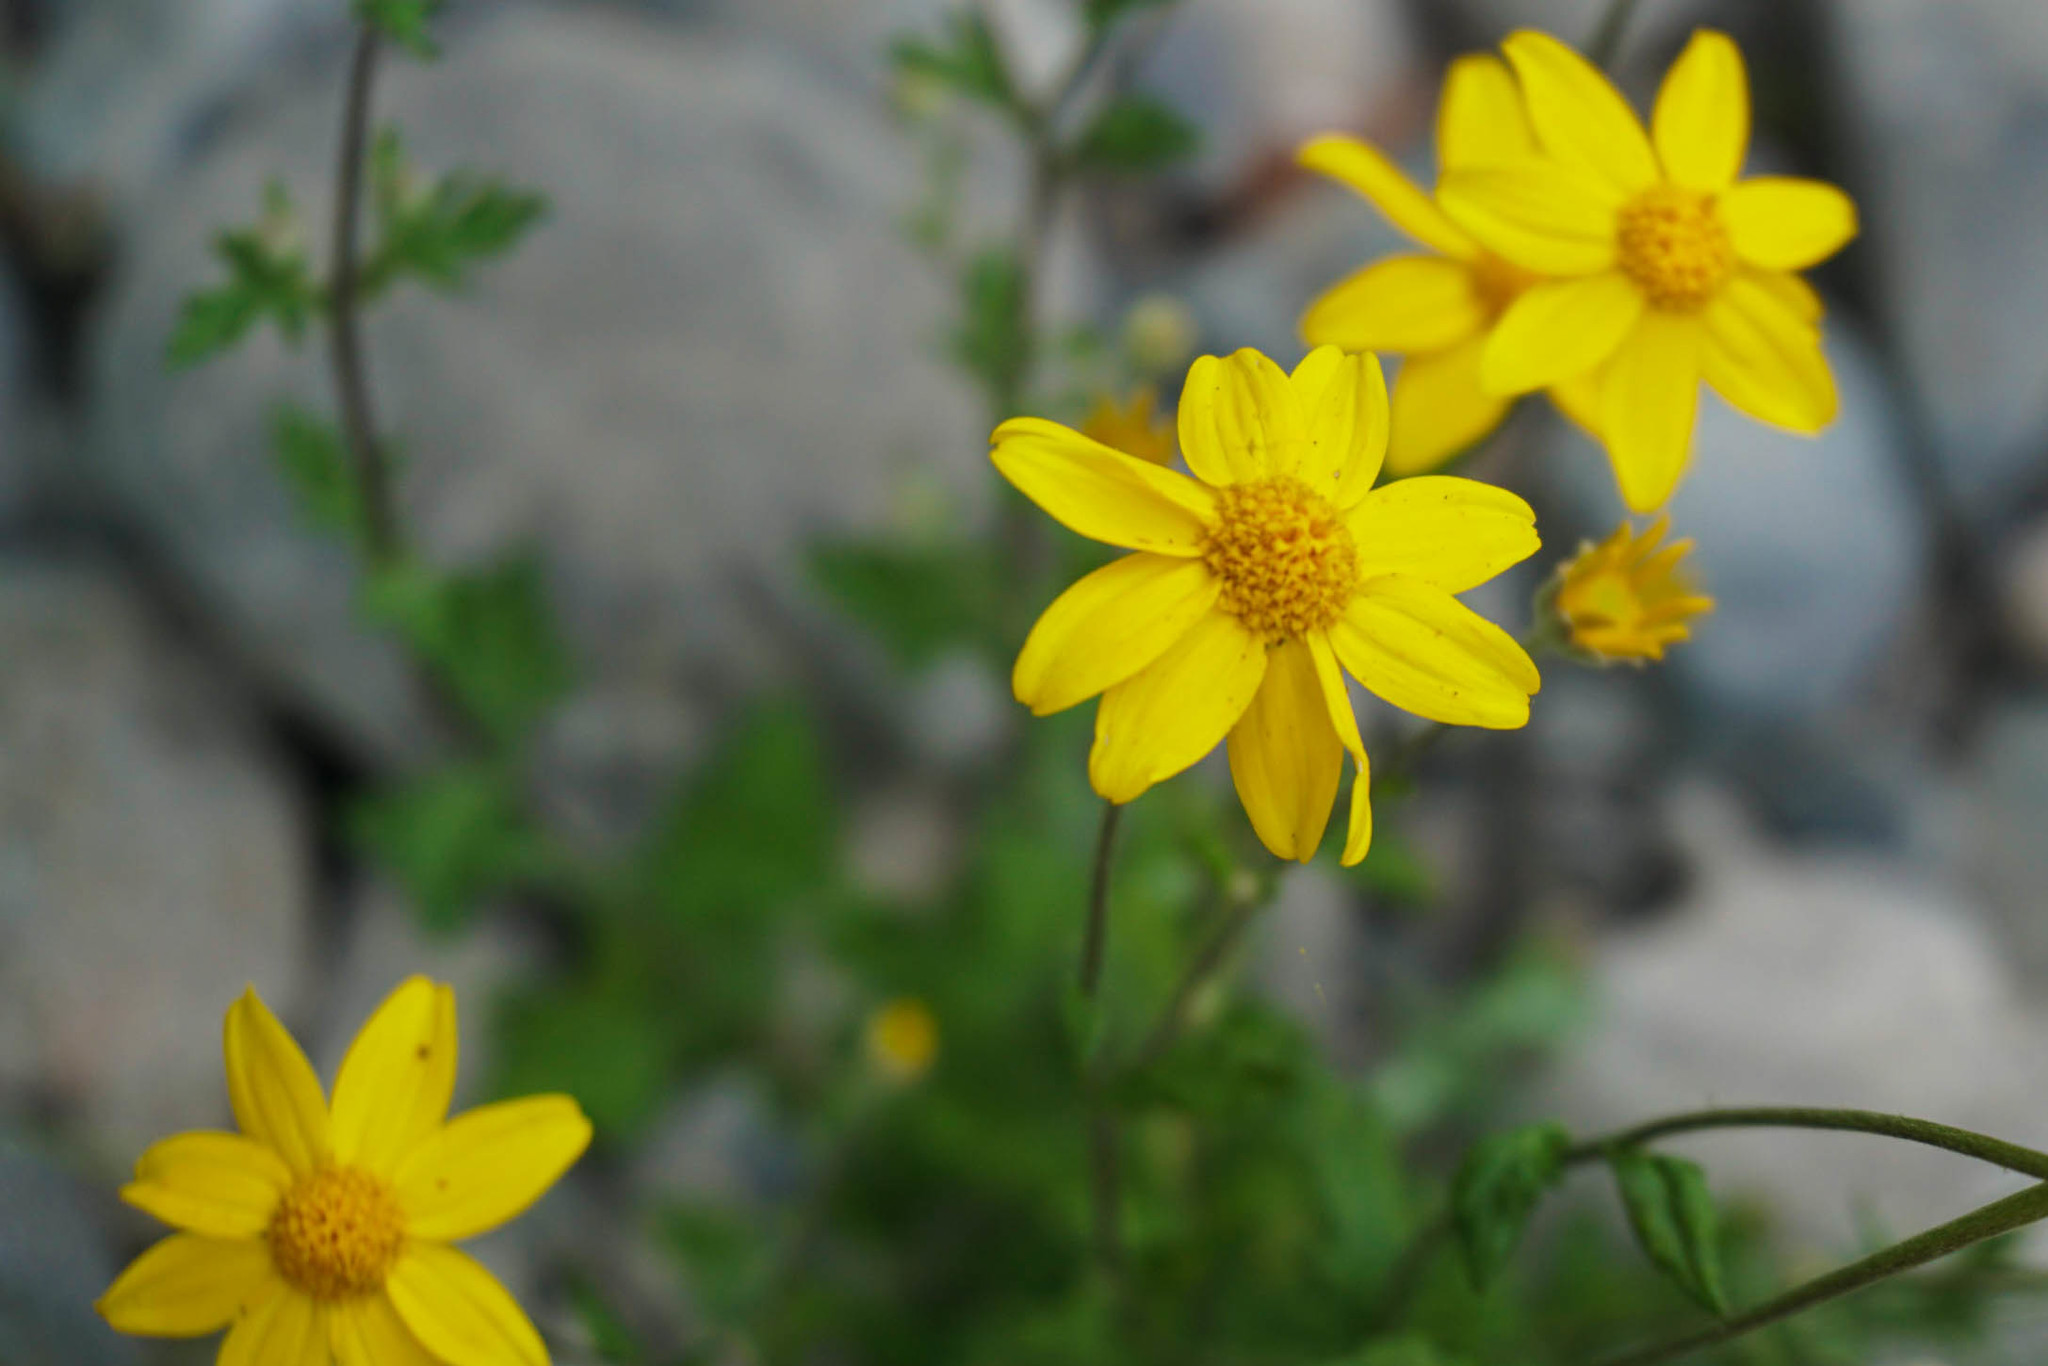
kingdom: Plantae
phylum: Tracheophyta
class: Magnoliopsida
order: Asterales
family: Asteraceae
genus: Eriophyllum
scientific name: Eriophyllum lanatum
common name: Common woolly-sunflower
